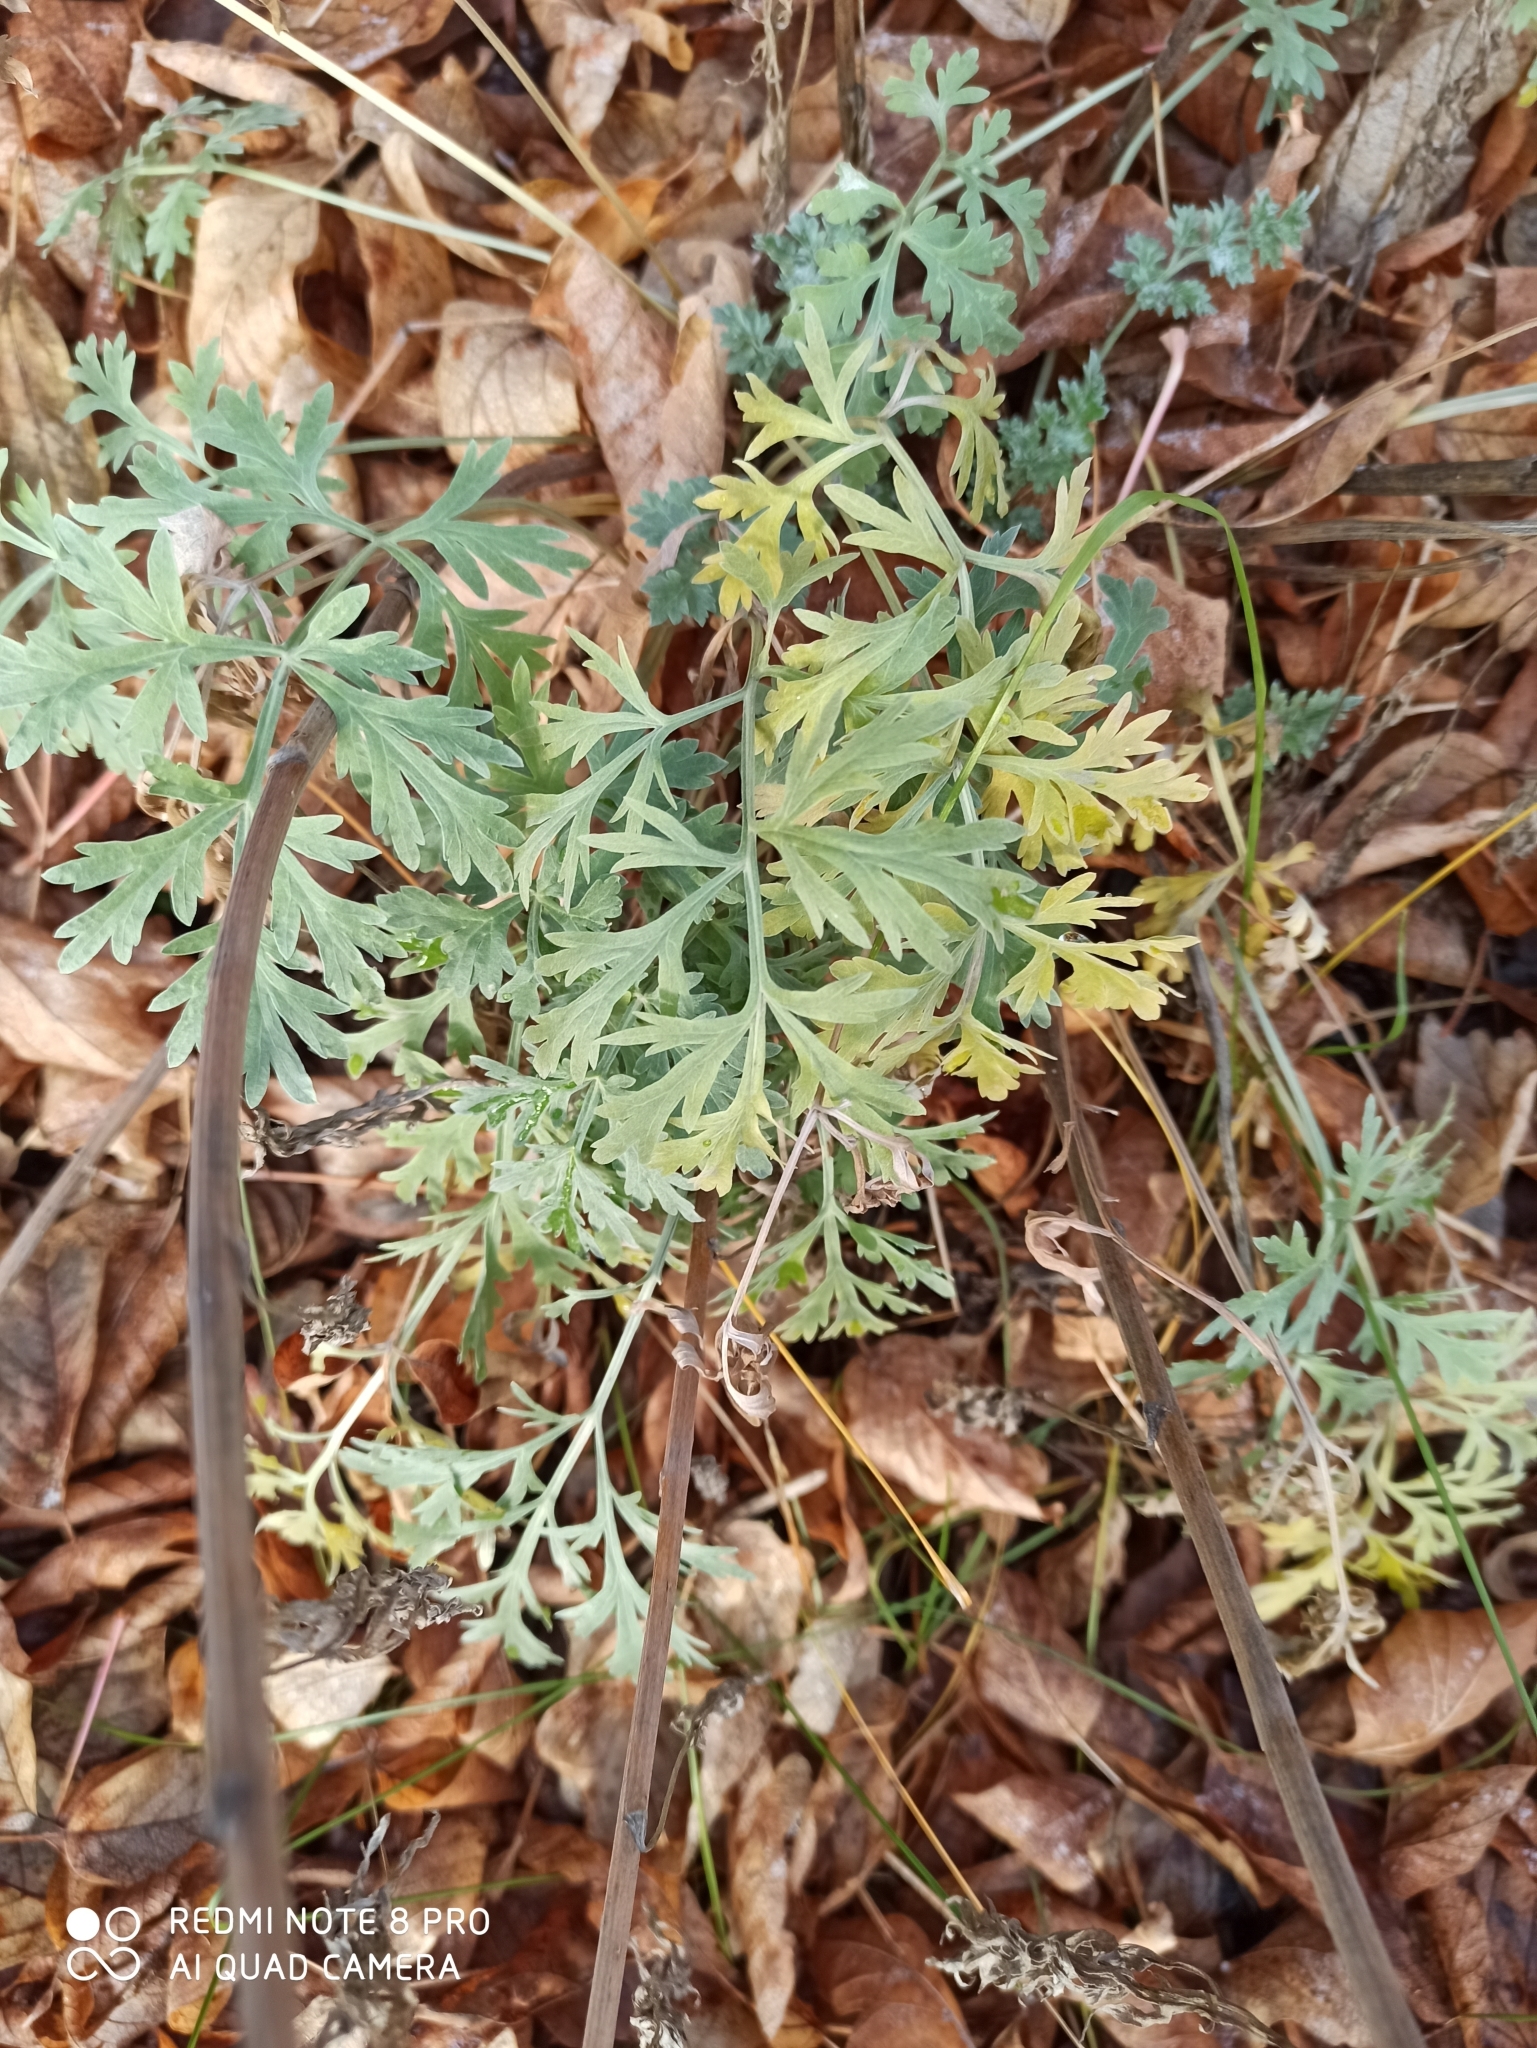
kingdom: Plantae
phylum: Tracheophyta
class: Magnoliopsida
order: Asterales
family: Asteraceae
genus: Artemisia
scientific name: Artemisia absinthium
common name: Wormwood
